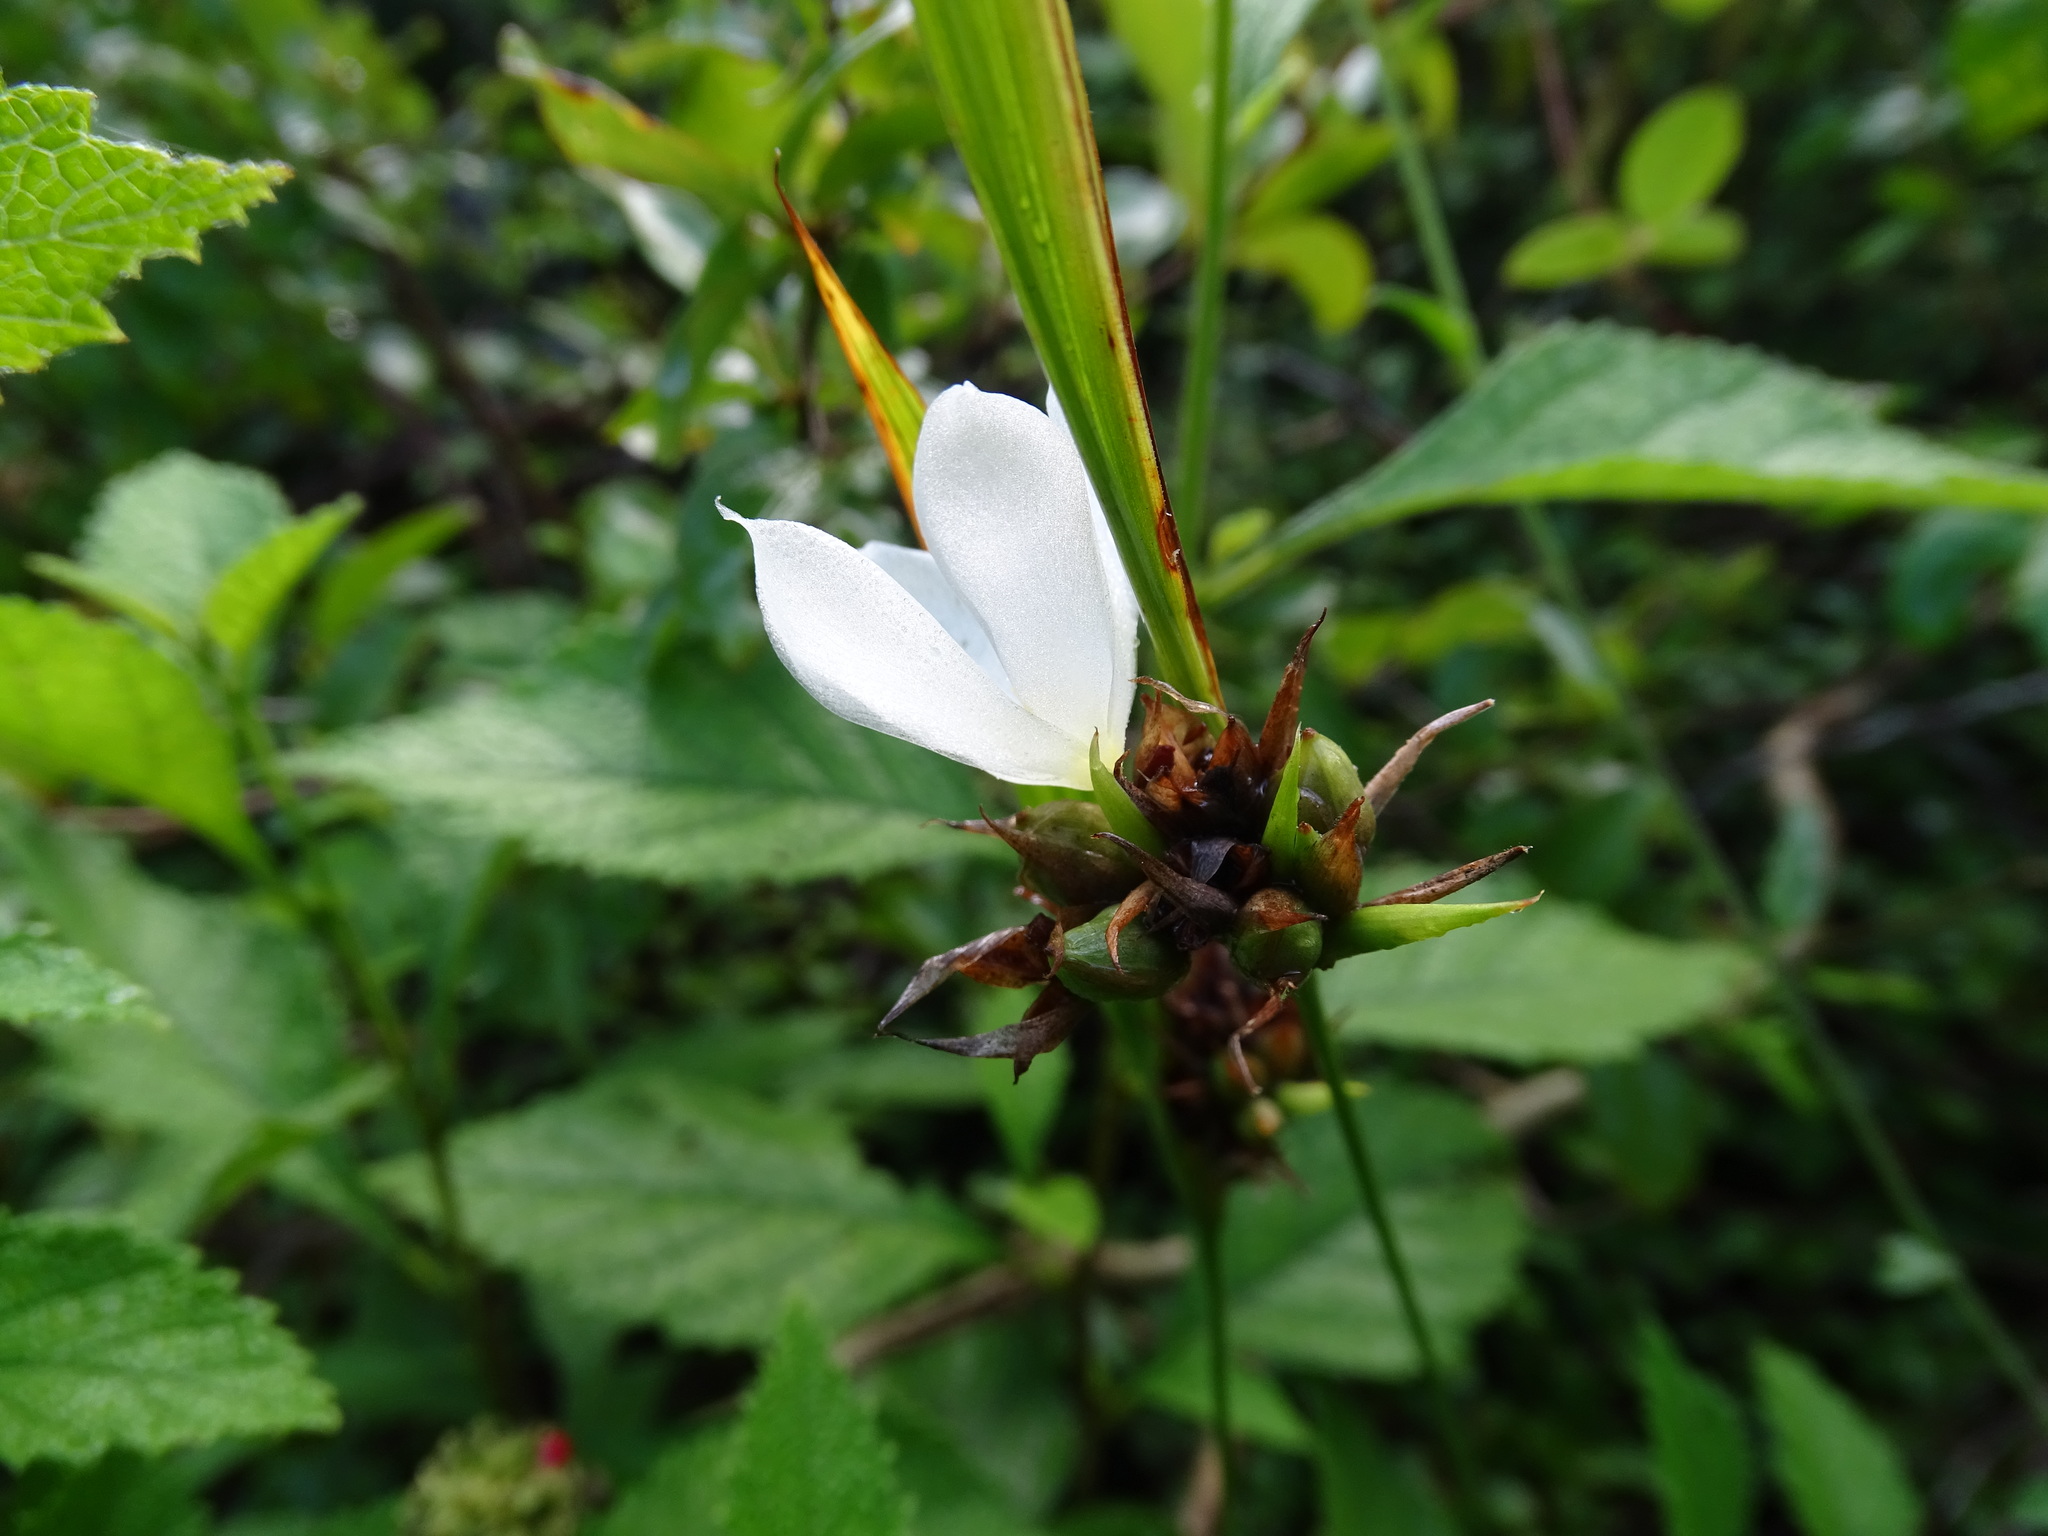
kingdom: Plantae
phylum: Tracheophyta
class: Liliopsida
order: Asparagales
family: Iridaceae
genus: Cipura
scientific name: Cipura campanulata
